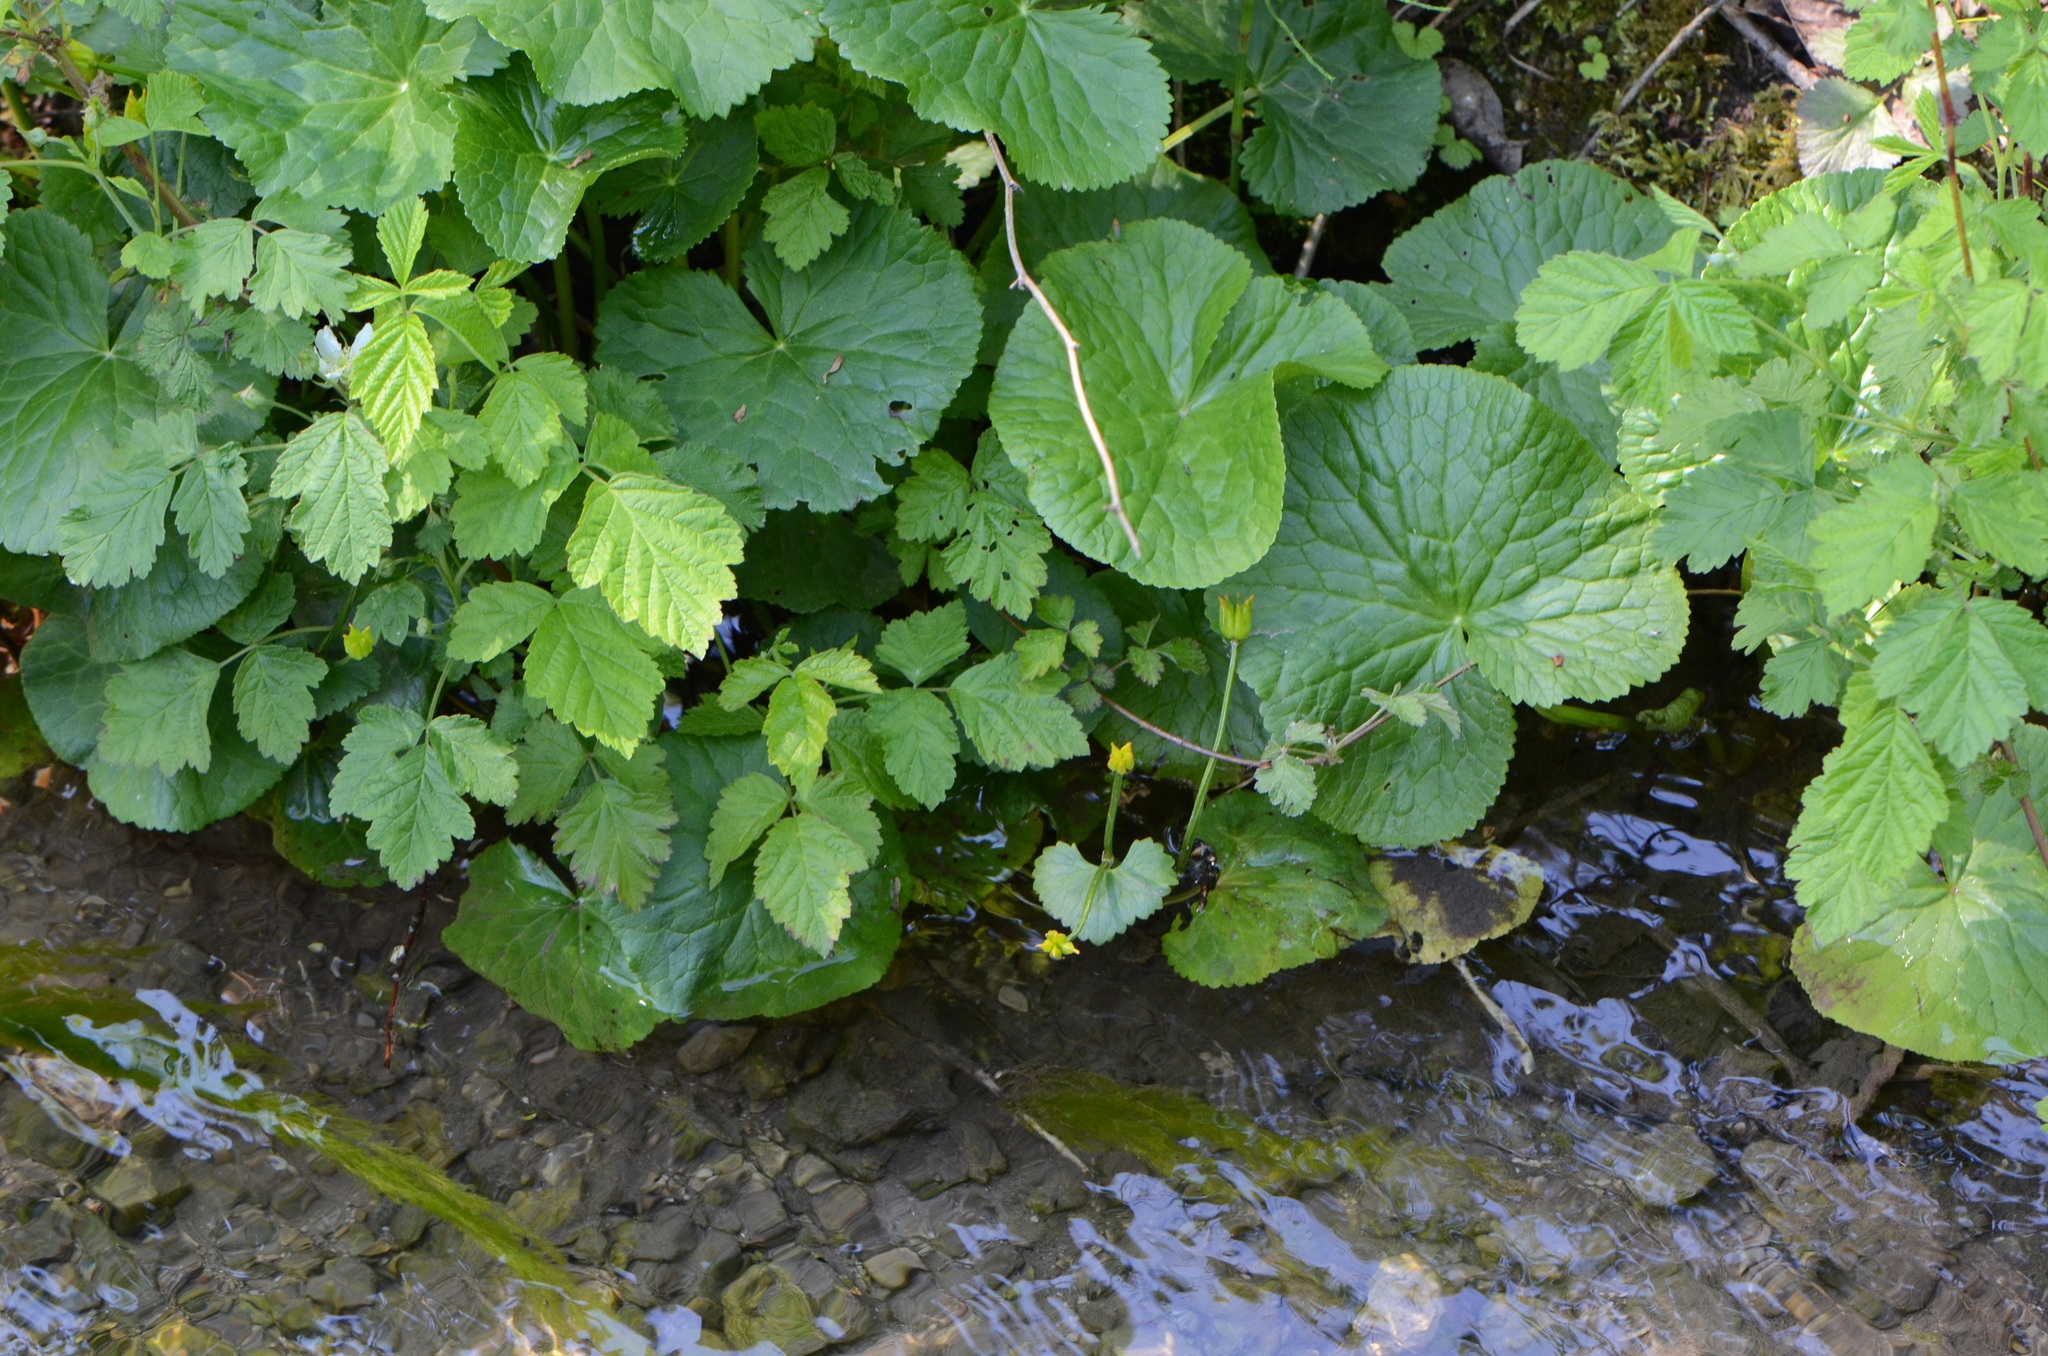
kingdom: Plantae
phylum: Tracheophyta
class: Magnoliopsida
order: Ranunculales
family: Ranunculaceae
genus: Caltha
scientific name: Caltha palustris
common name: Marsh marigold
